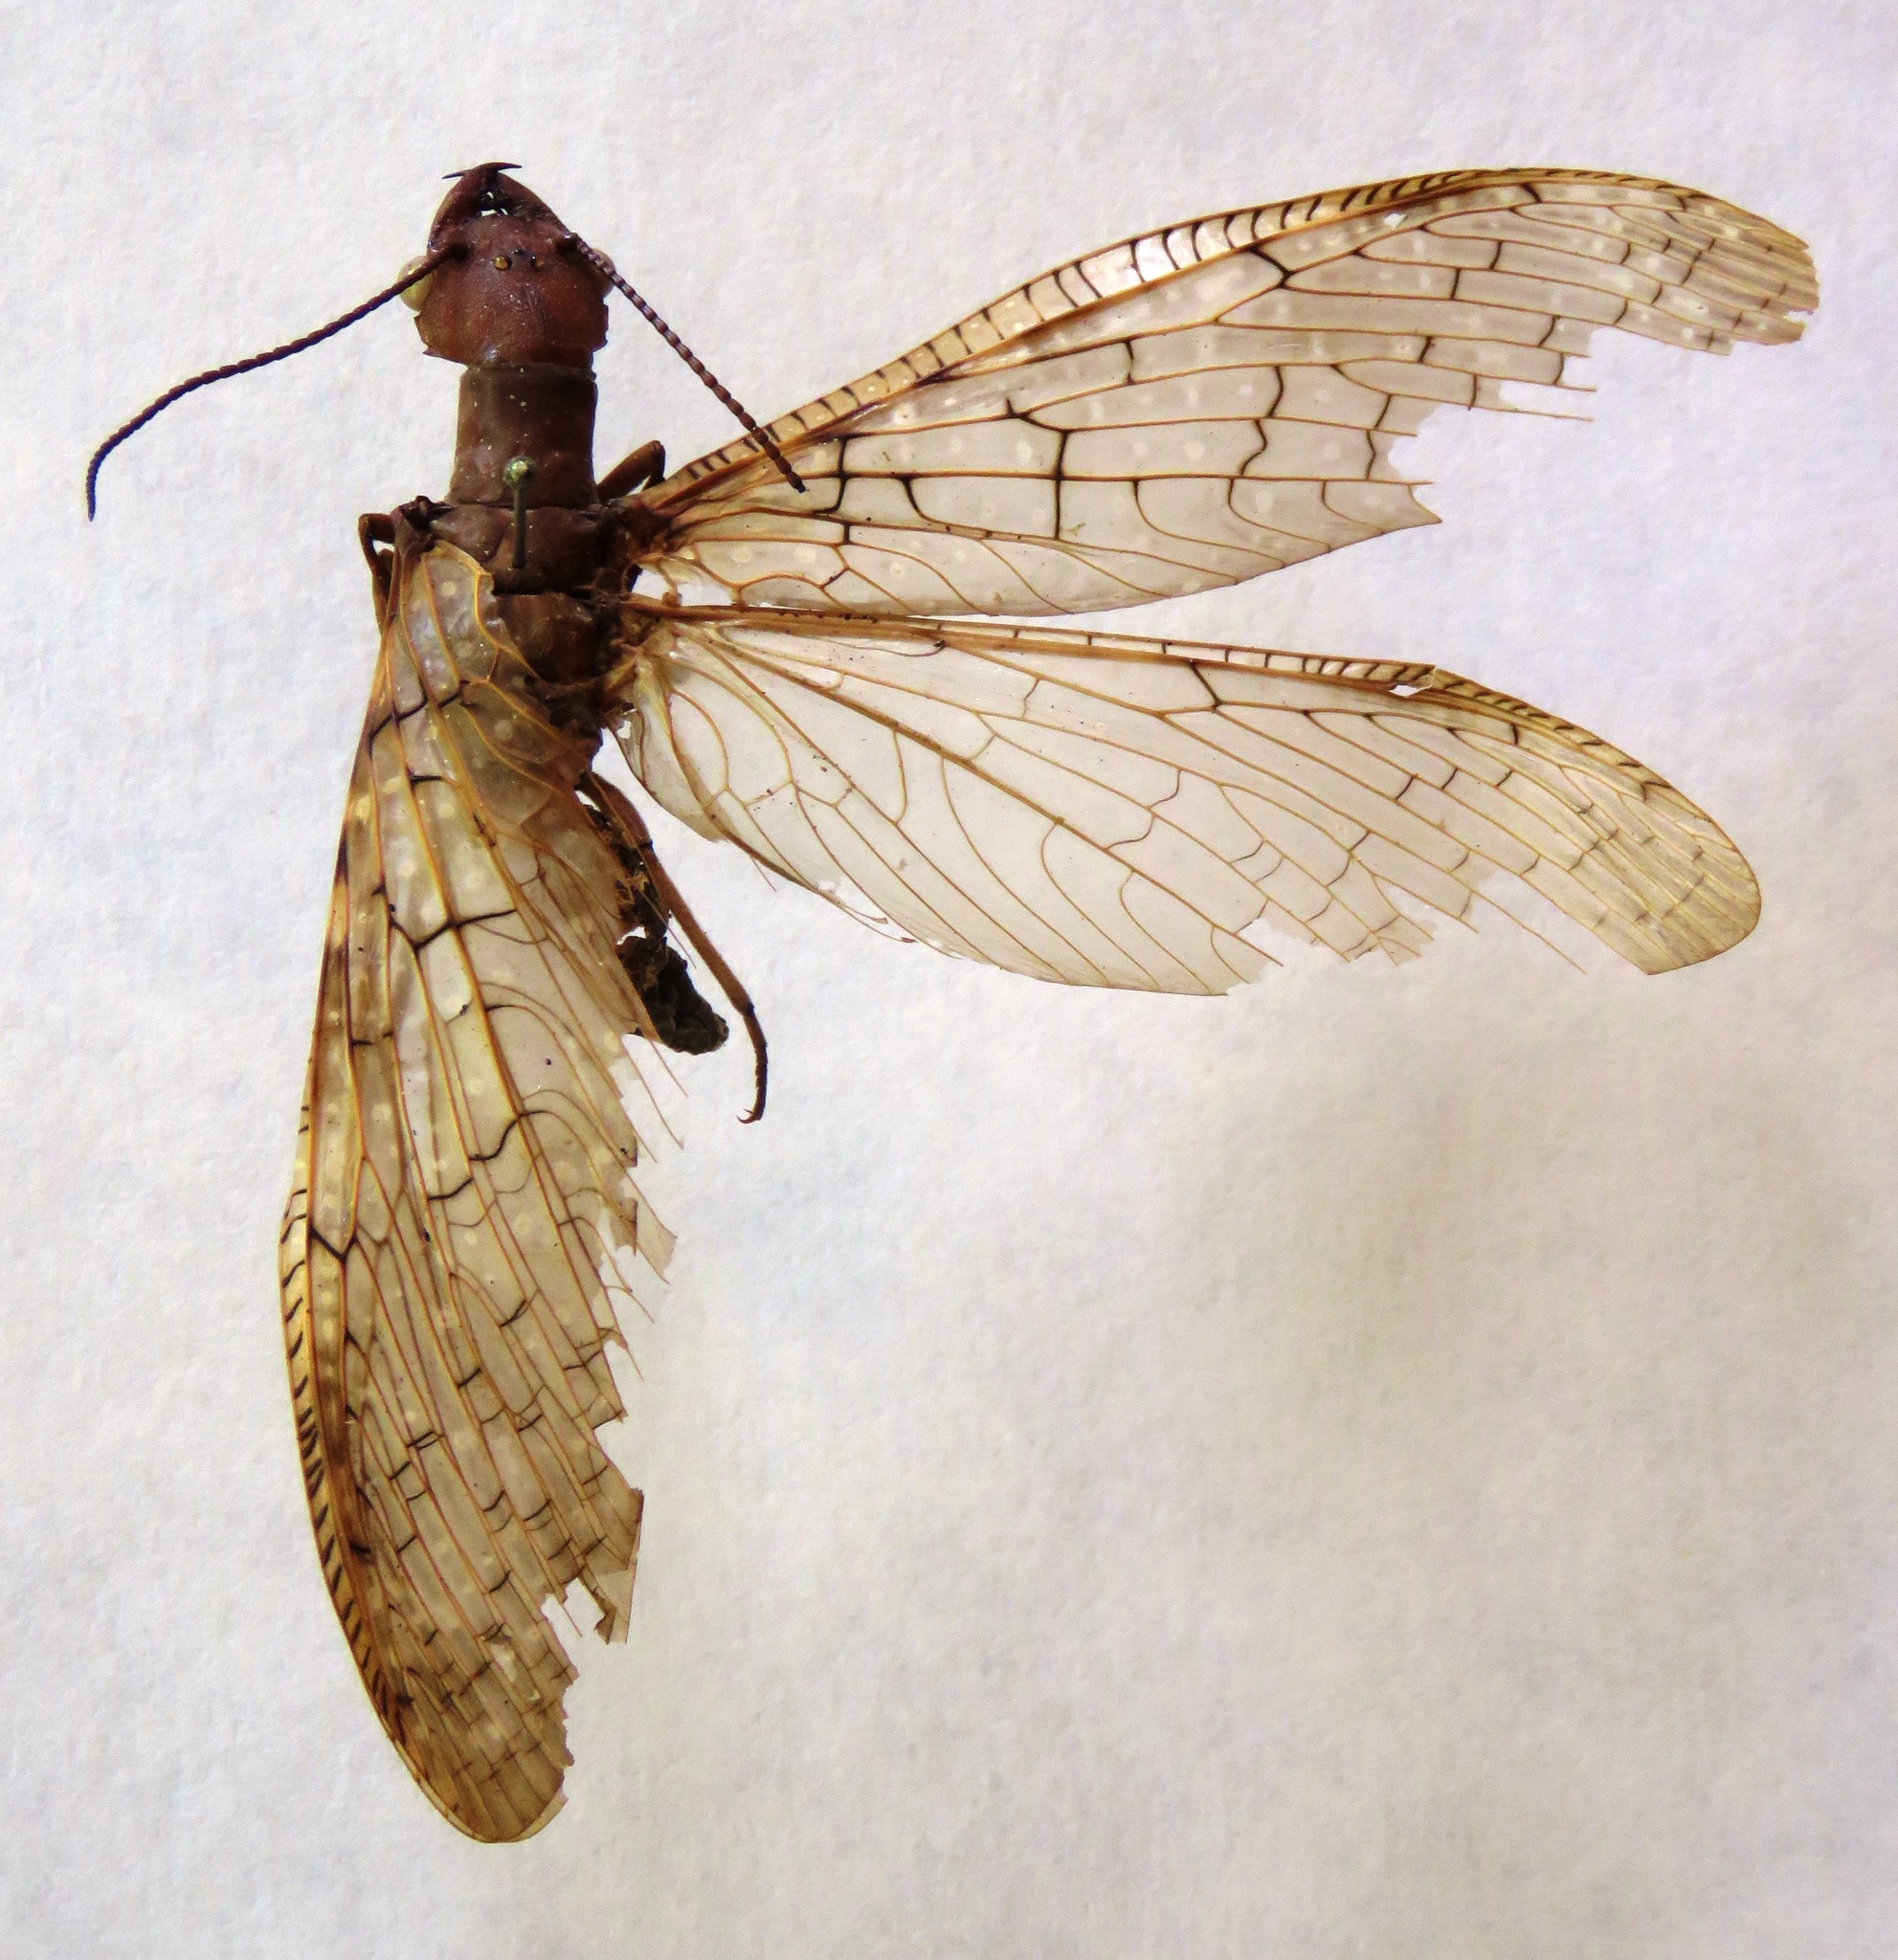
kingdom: Animalia
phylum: Arthropoda
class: Insecta
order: Megaloptera
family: Corydalidae
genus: Corydalus
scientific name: Corydalus luteus
